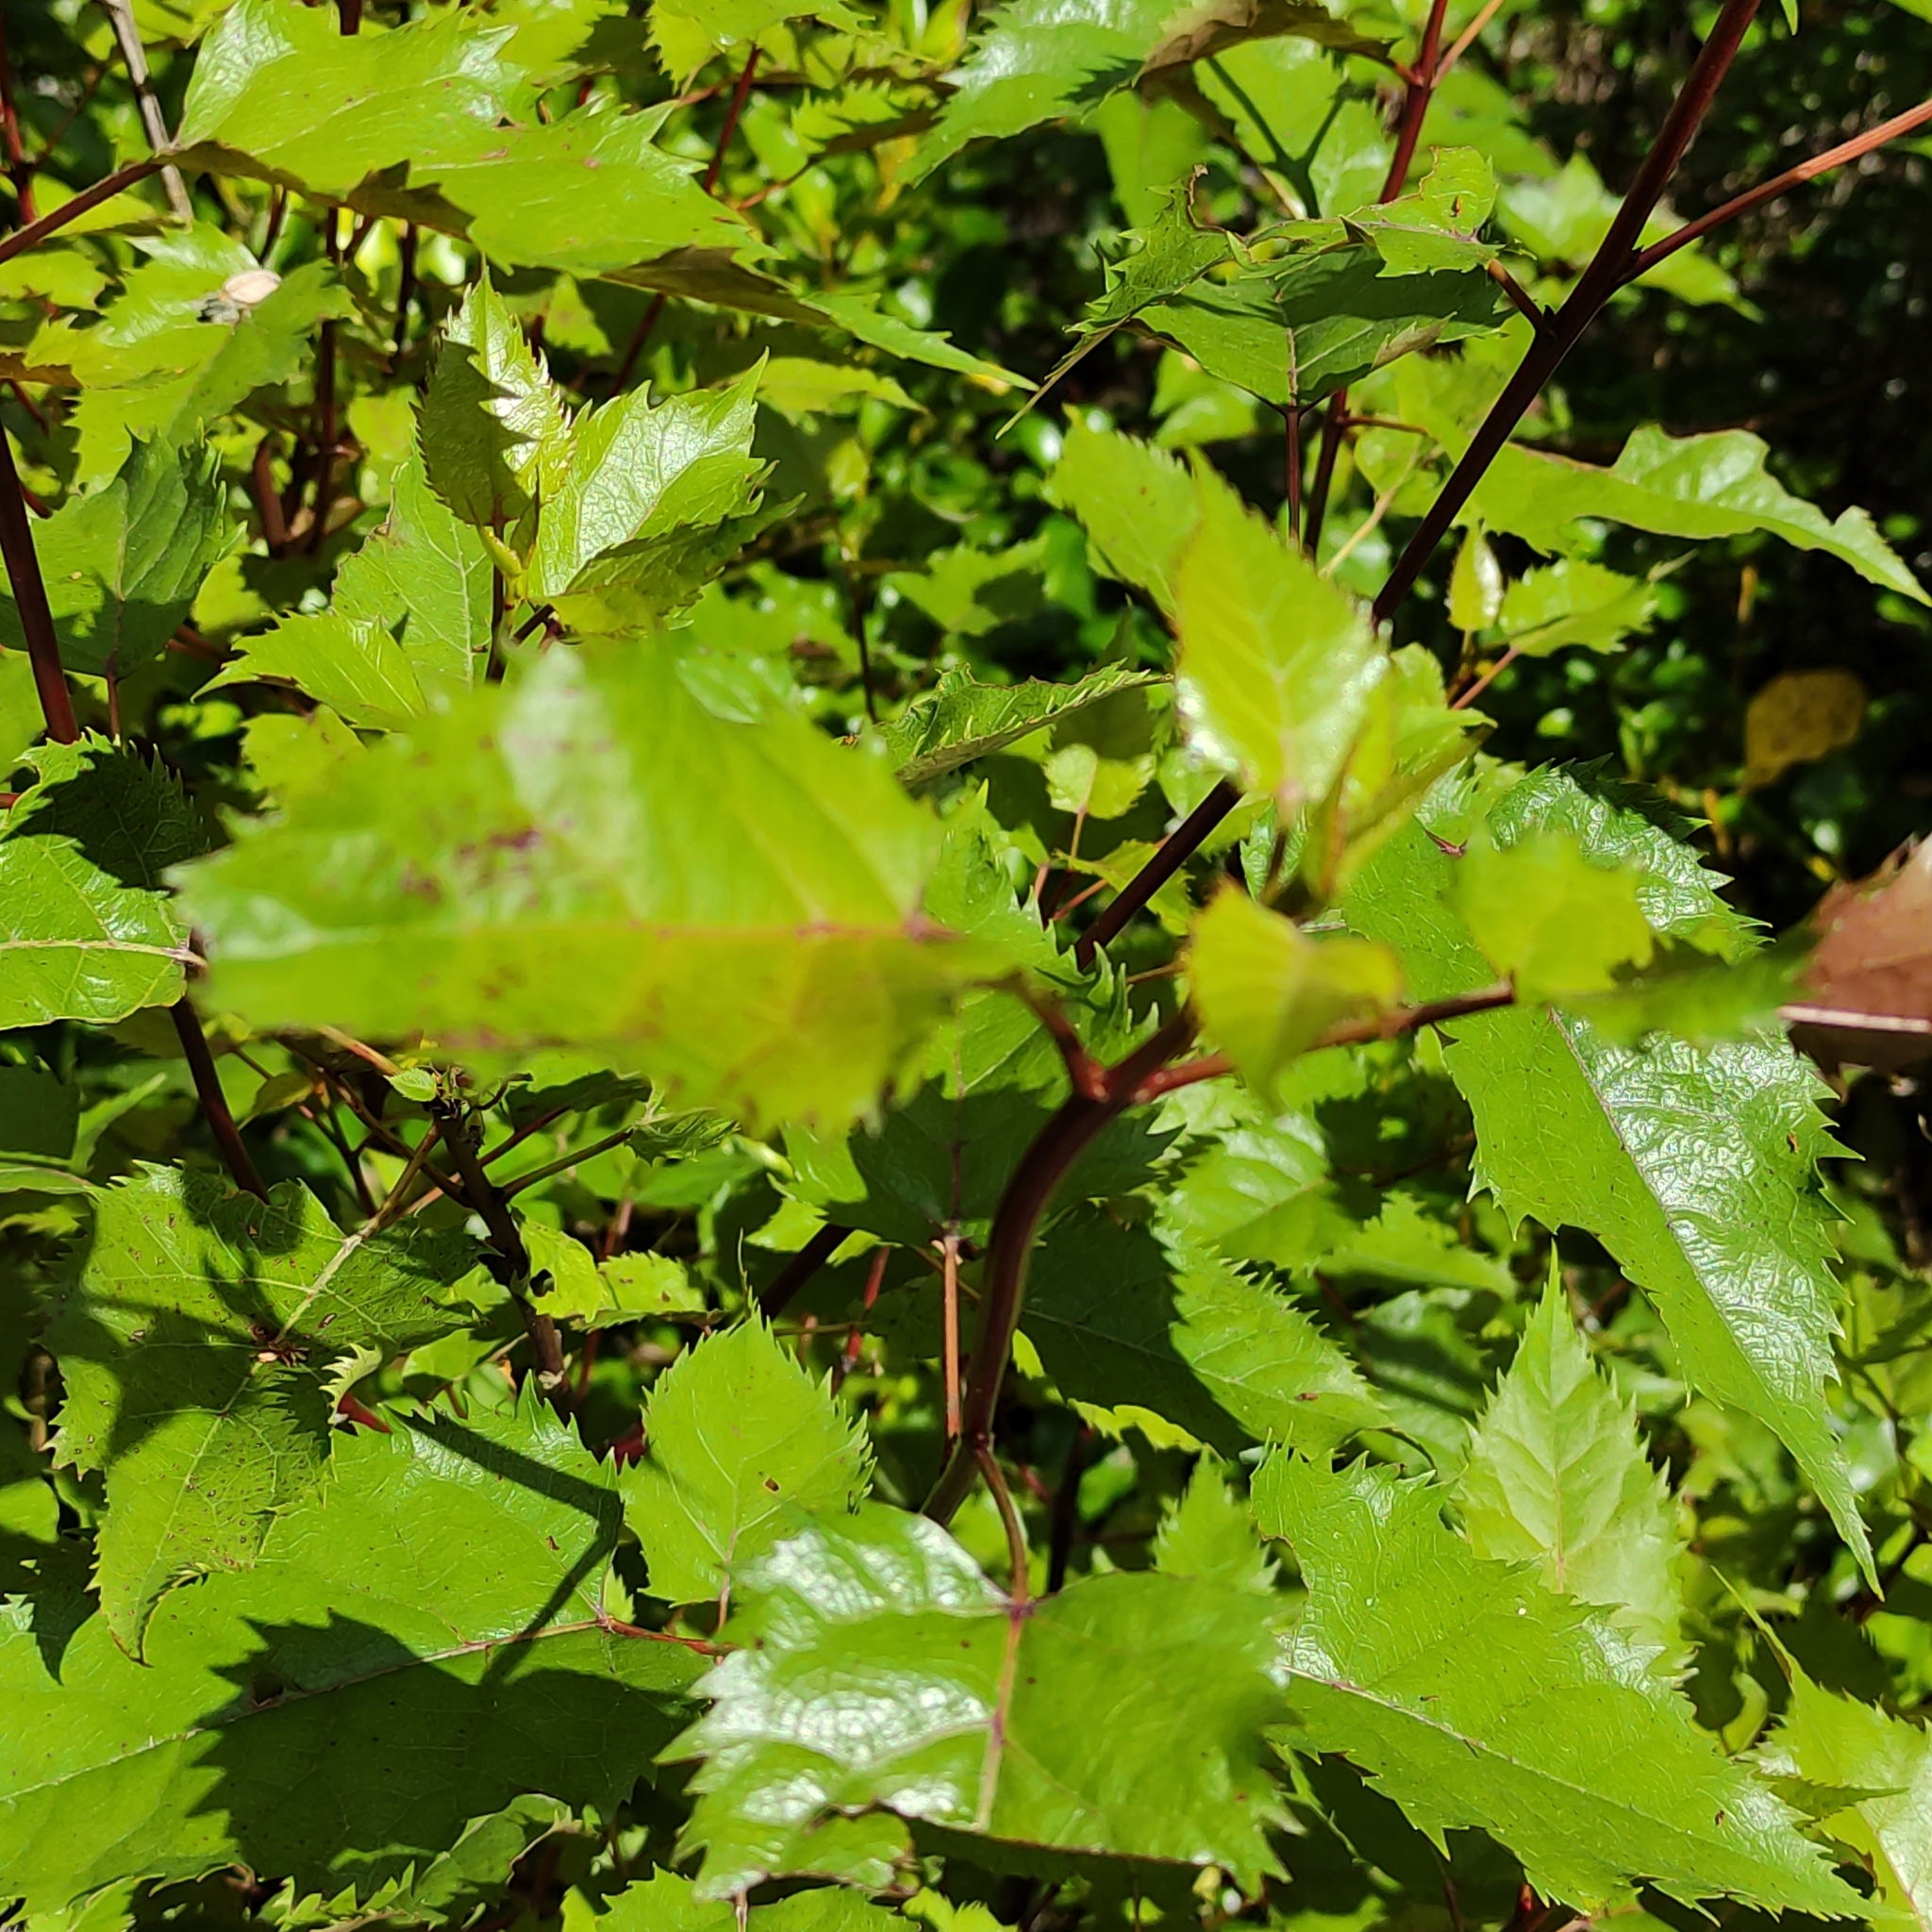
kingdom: Plantae
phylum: Tracheophyta
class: Magnoliopsida
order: Oxalidales
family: Elaeocarpaceae
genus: Aristotelia
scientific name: Aristotelia serrata
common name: New zealand wineberry
